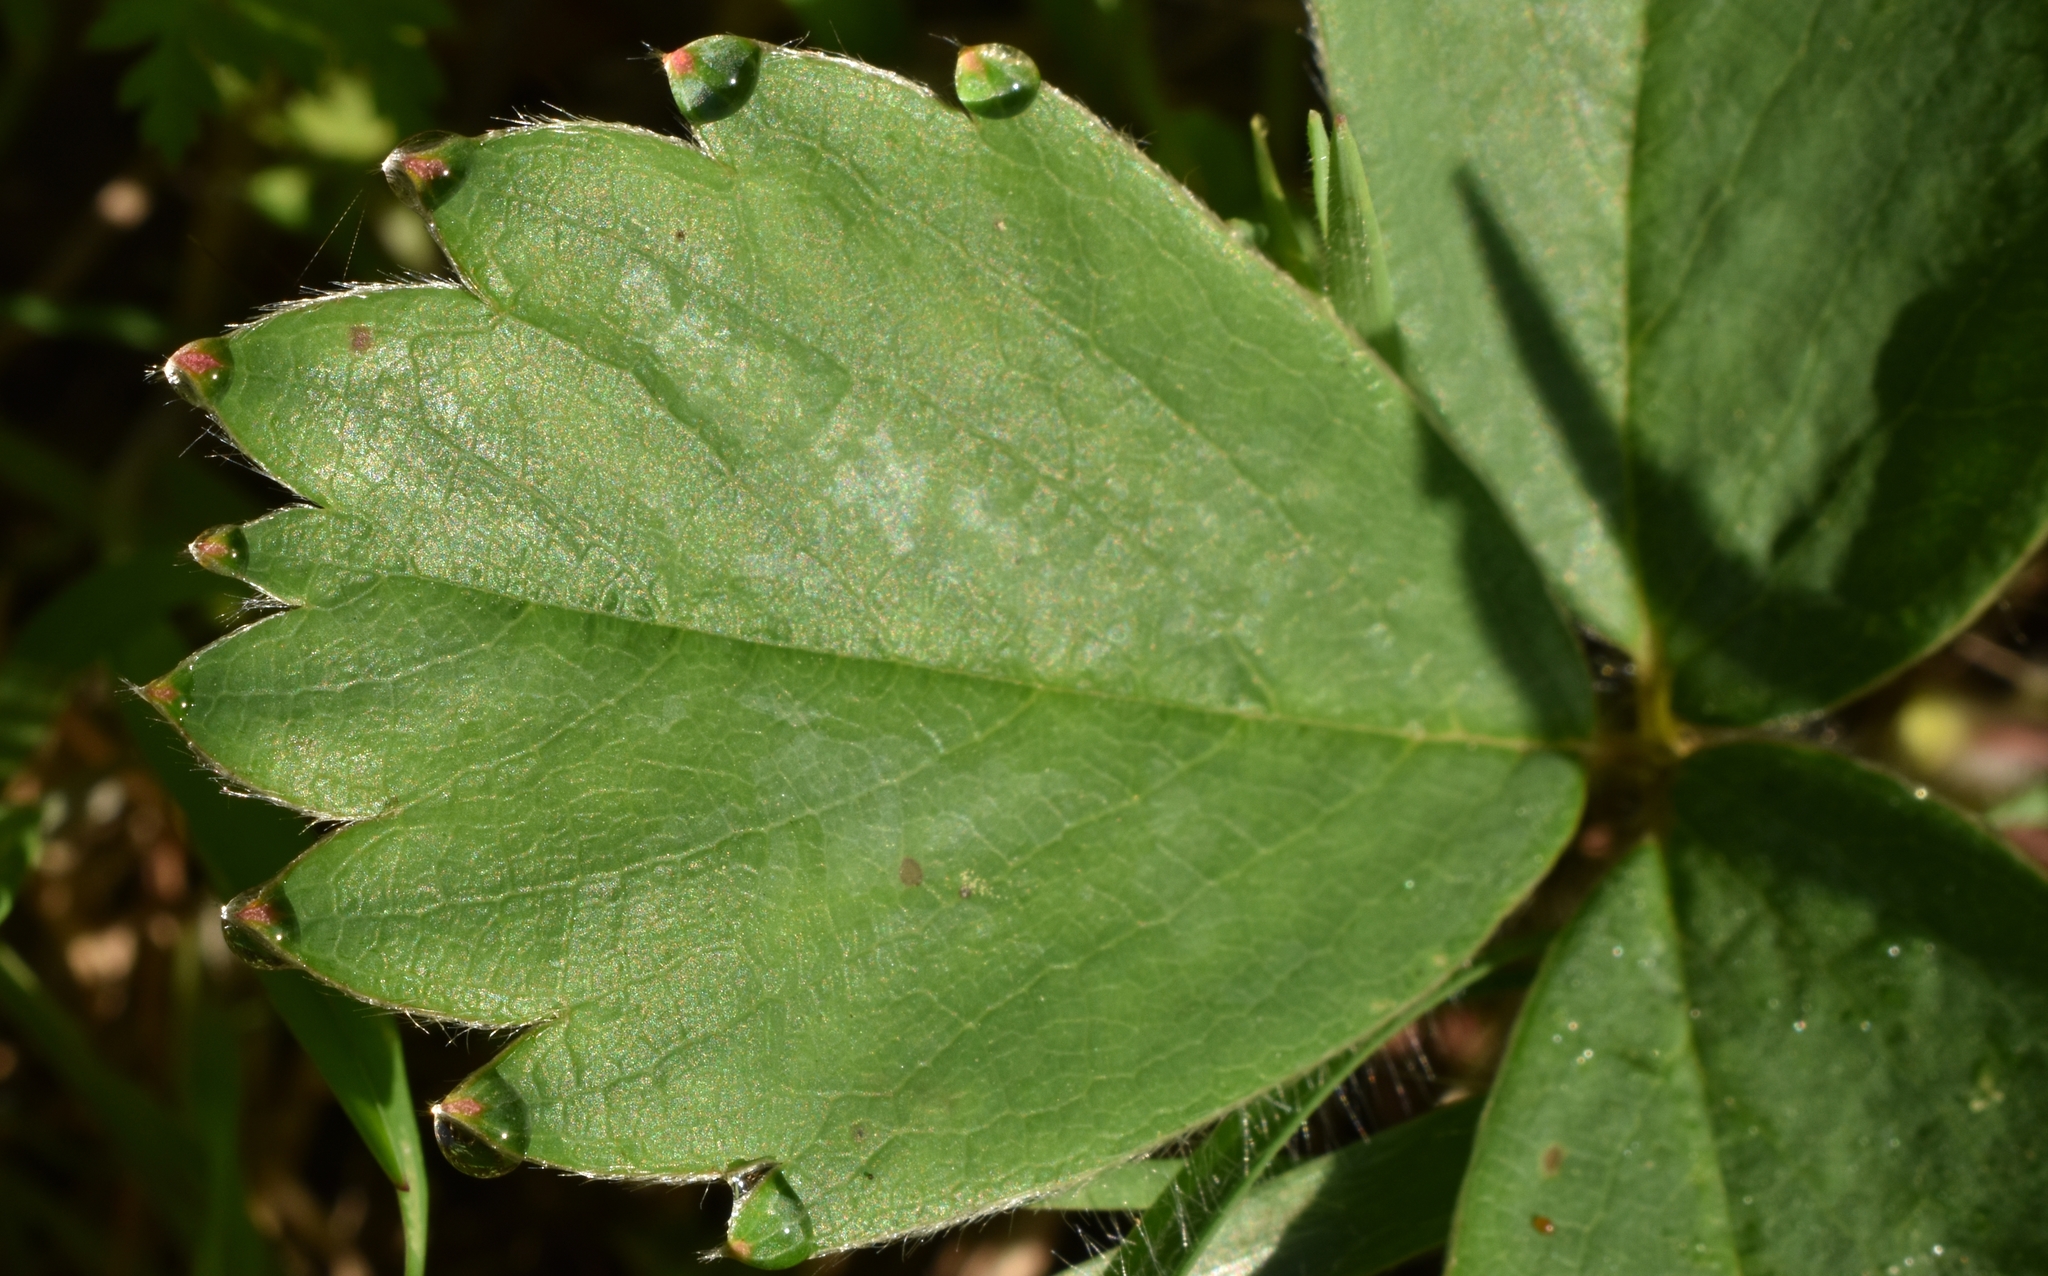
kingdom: Plantae
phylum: Tracheophyta
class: Magnoliopsida
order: Rosales
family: Rosaceae
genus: Fragaria
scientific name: Fragaria virginiana
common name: Thickleaved wild strawberry
